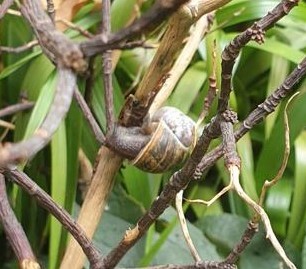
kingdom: Animalia
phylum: Mollusca
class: Gastropoda
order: Stylommatophora
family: Helicidae
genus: Cornu
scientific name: Cornu aspersum
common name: Brown garden snail
